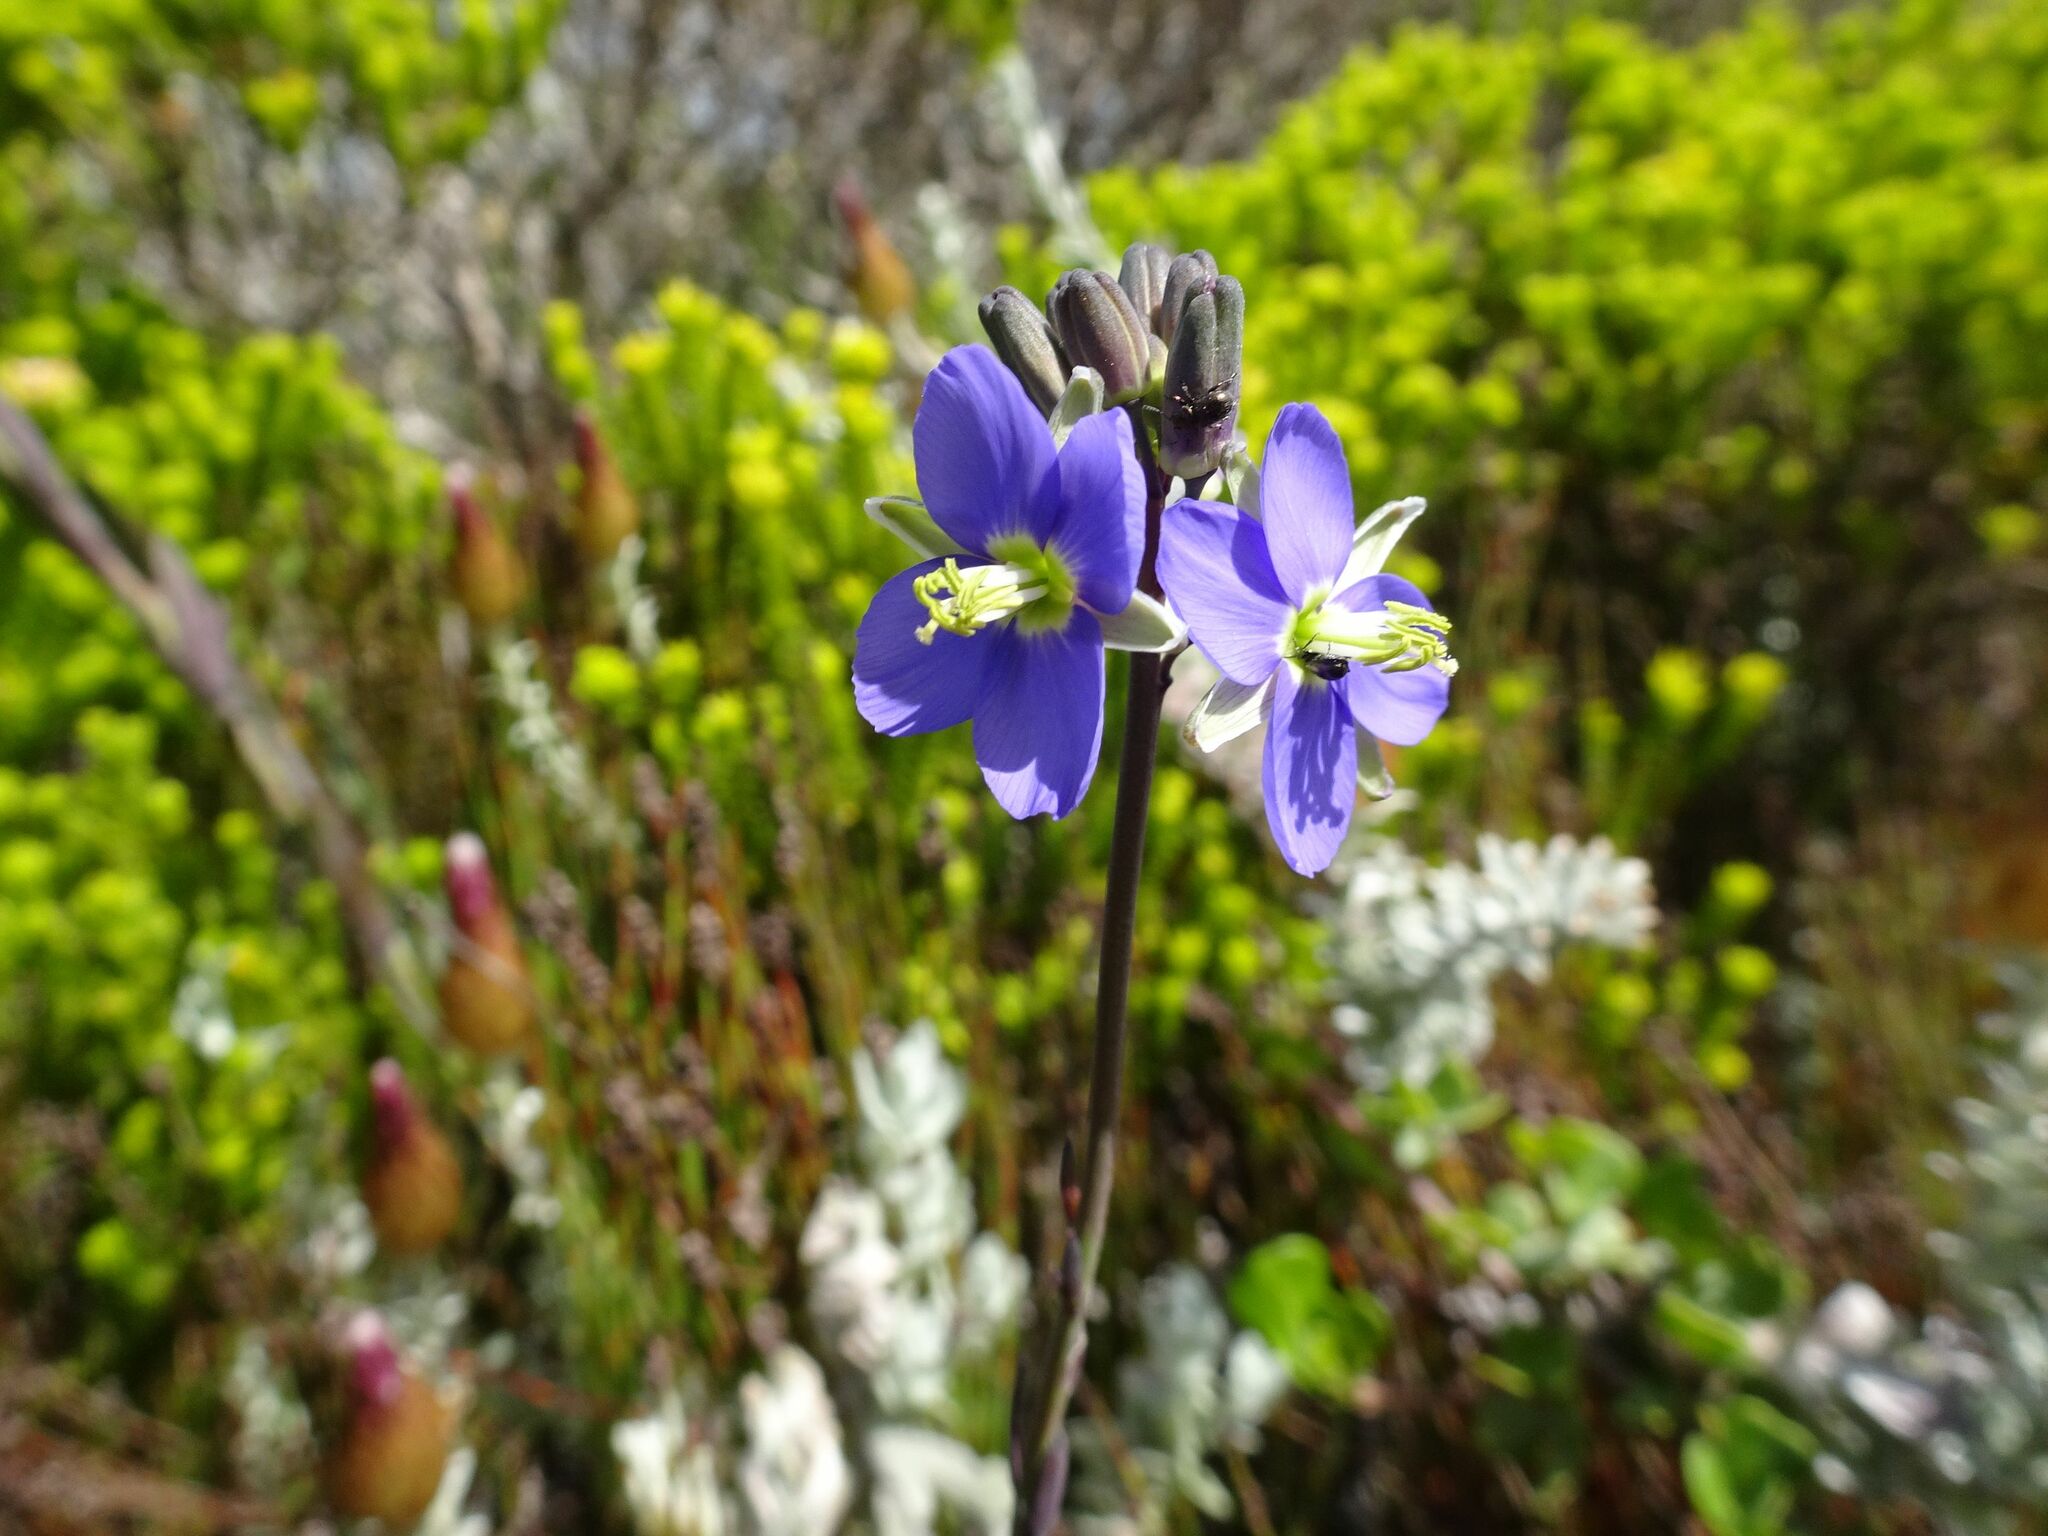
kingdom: Plantae
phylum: Tracheophyta
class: Magnoliopsida
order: Brassicales
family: Brassicaceae
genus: Heliophila
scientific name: Heliophila linearis
